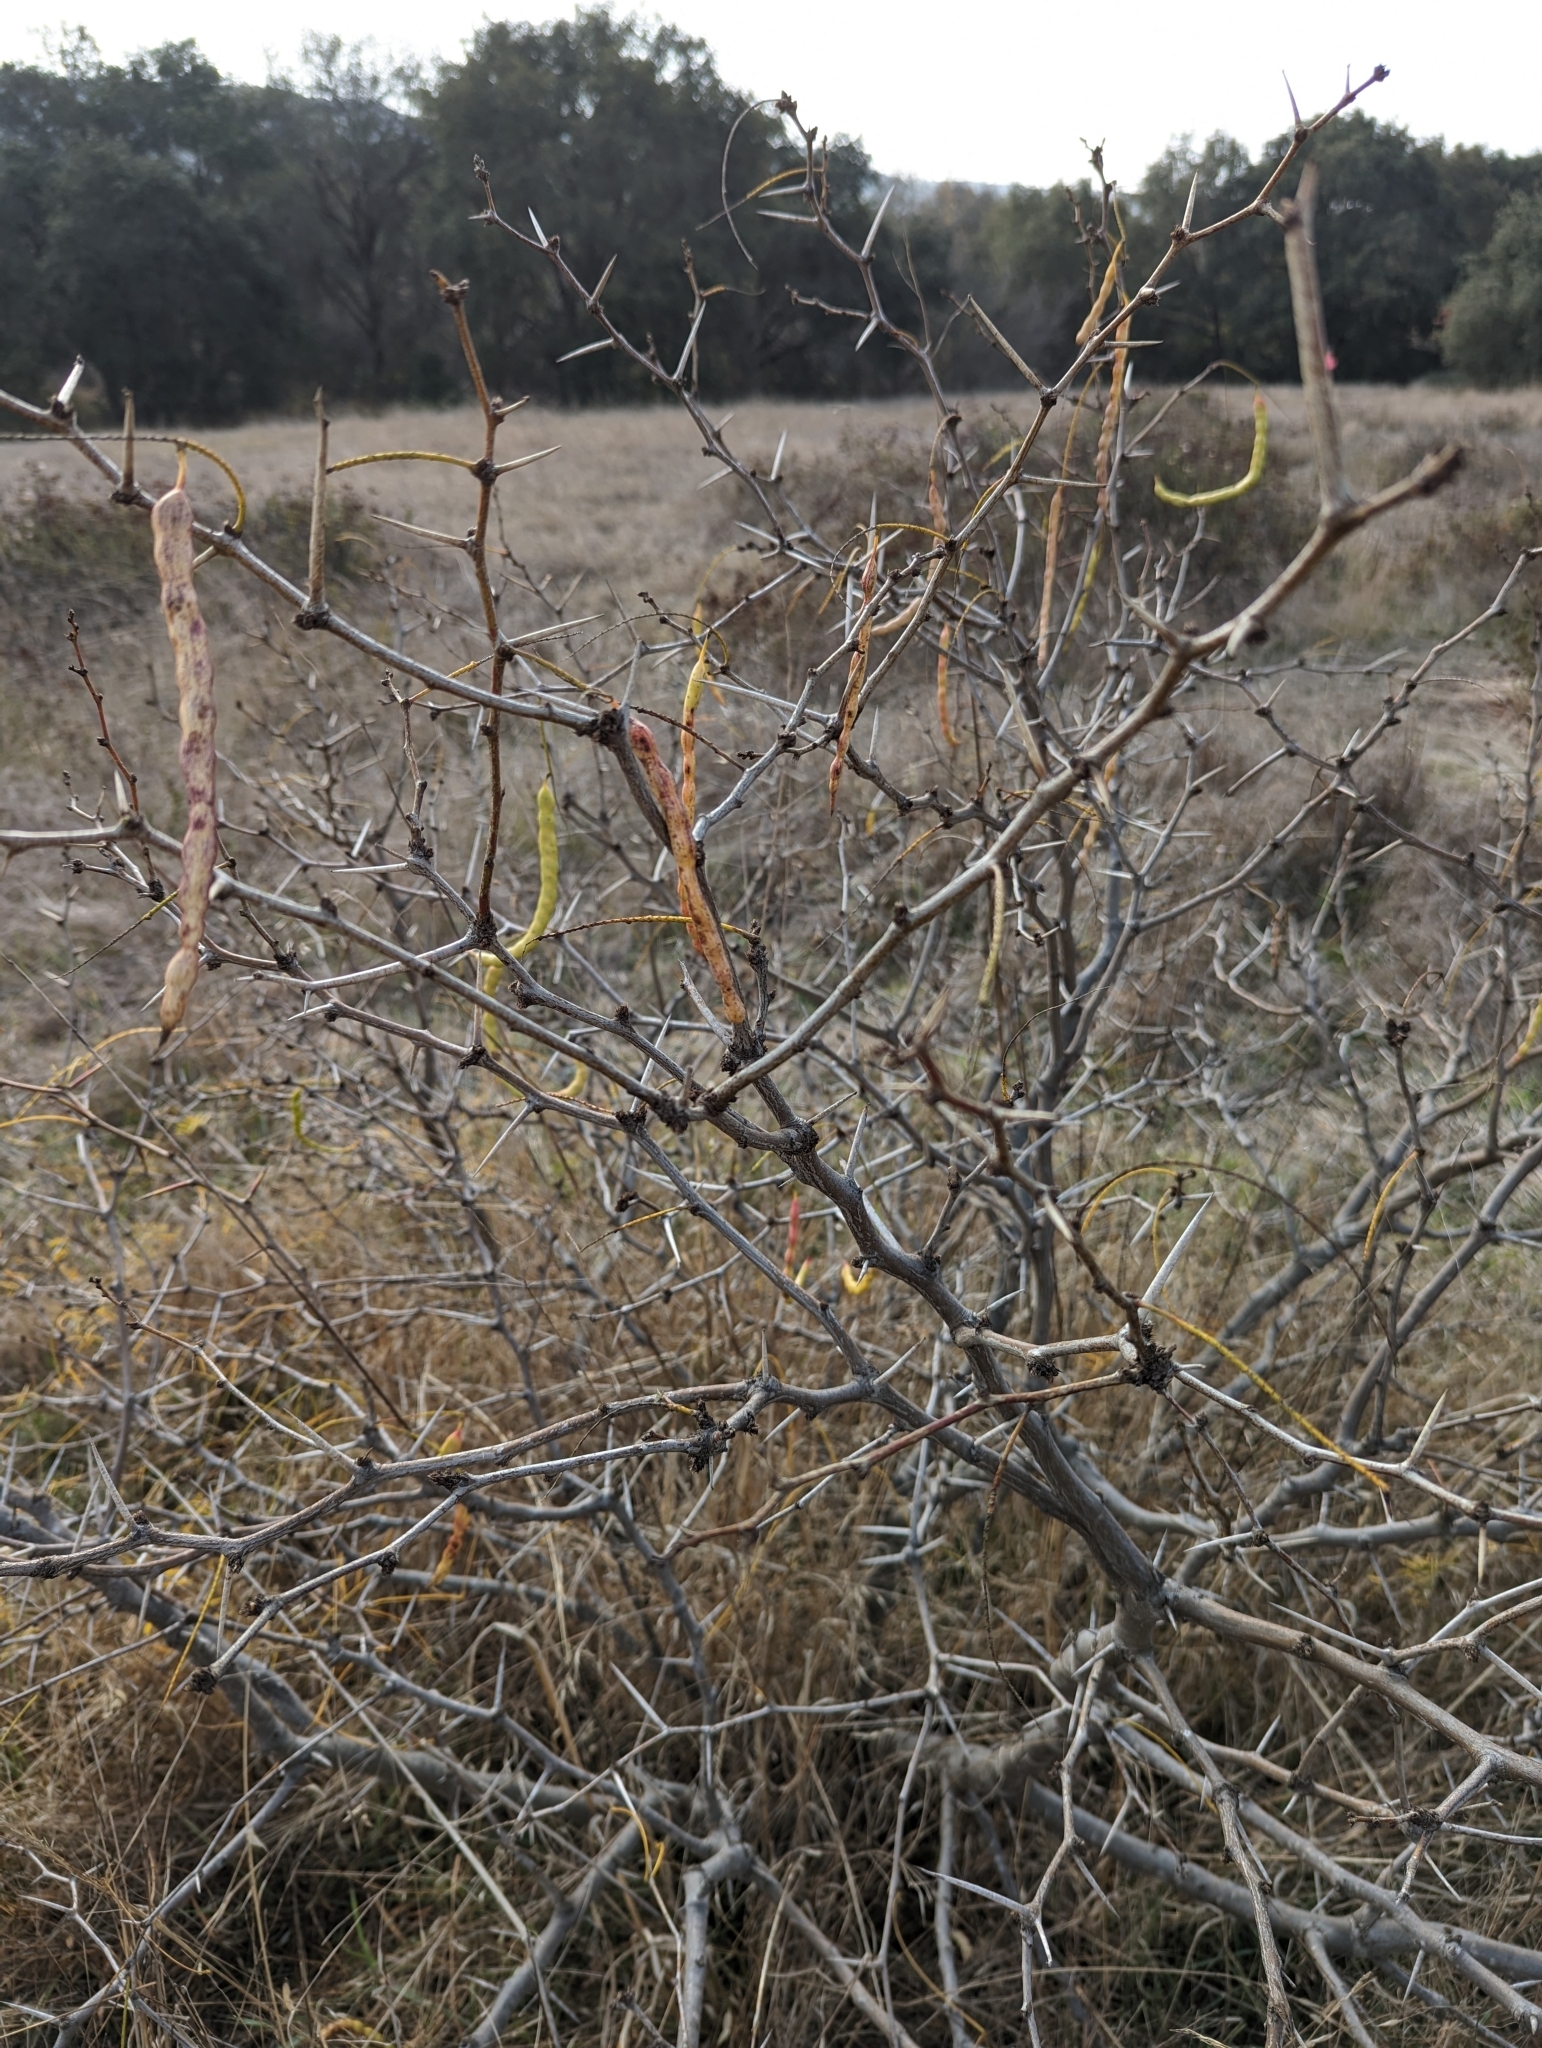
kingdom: Plantae
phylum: Tracheophyta
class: Magnoliopsida
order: Fabales
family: Fabaceae
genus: Prosopis
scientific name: Prosopis glandulosa
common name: Honey mesquite
